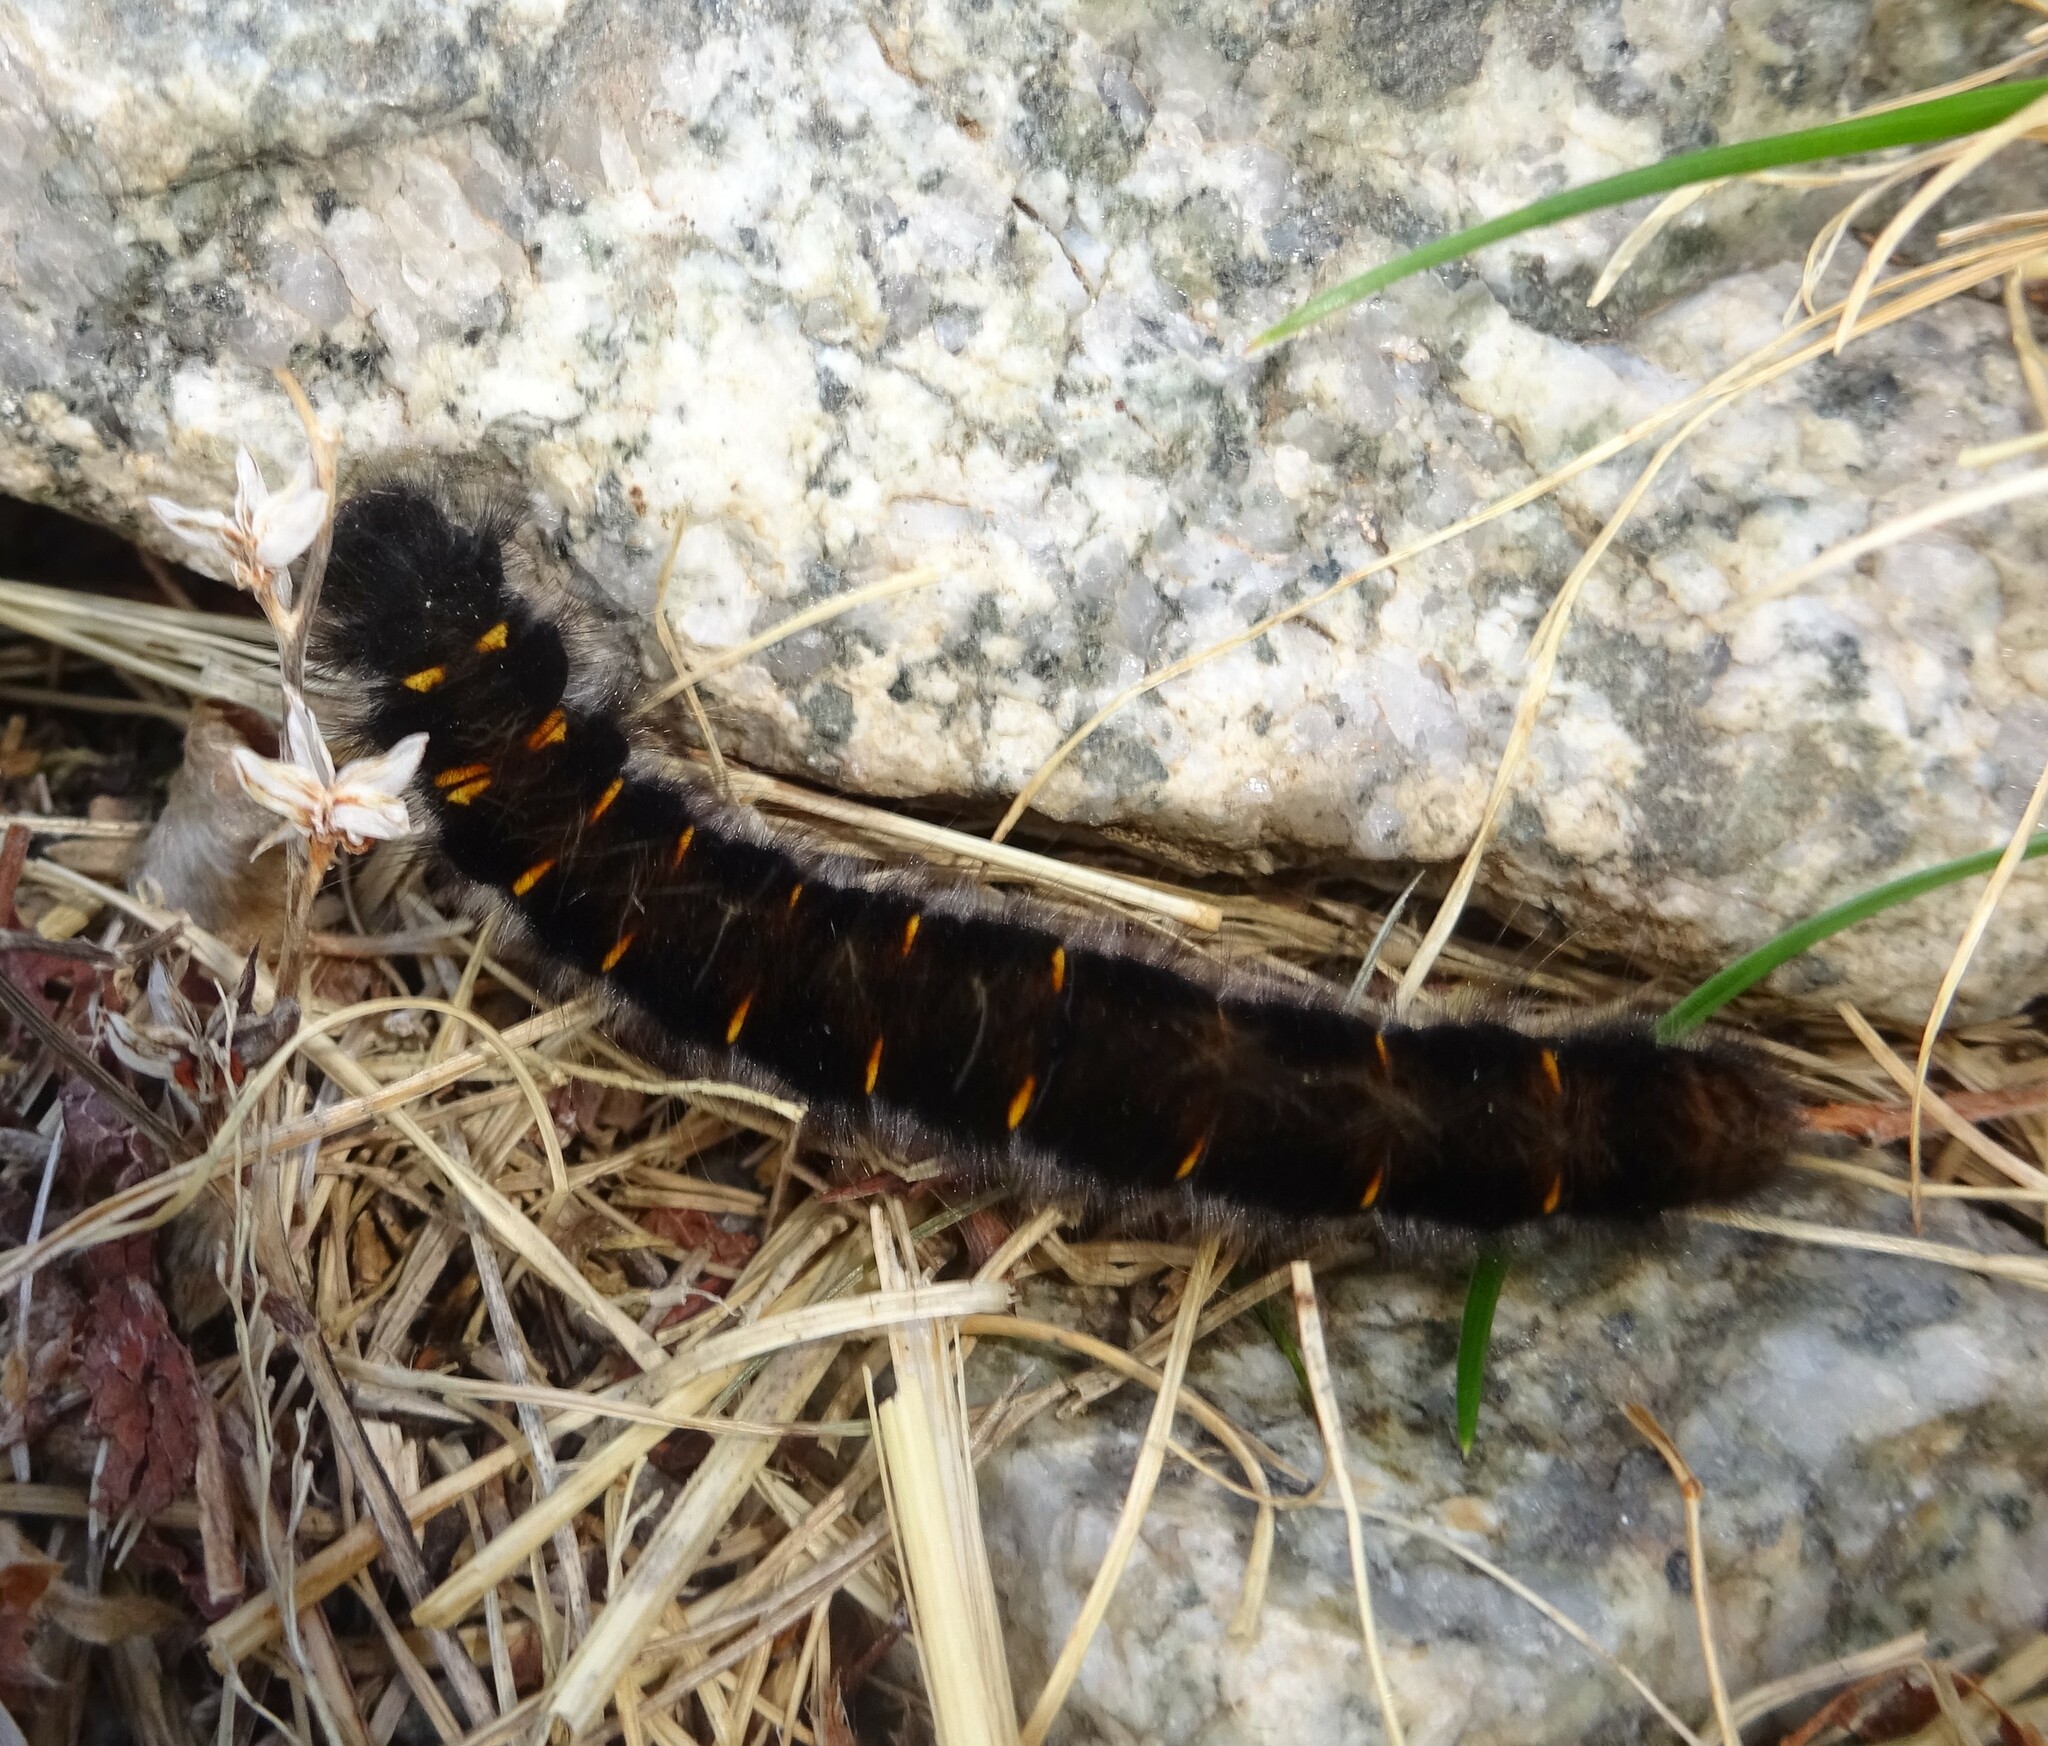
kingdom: Animalia
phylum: Arthropoda
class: Insecta
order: Lepidoptera
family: Lasiocampidae
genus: Macrothylacia
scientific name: Macrothylacia rubi
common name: Fox moth
